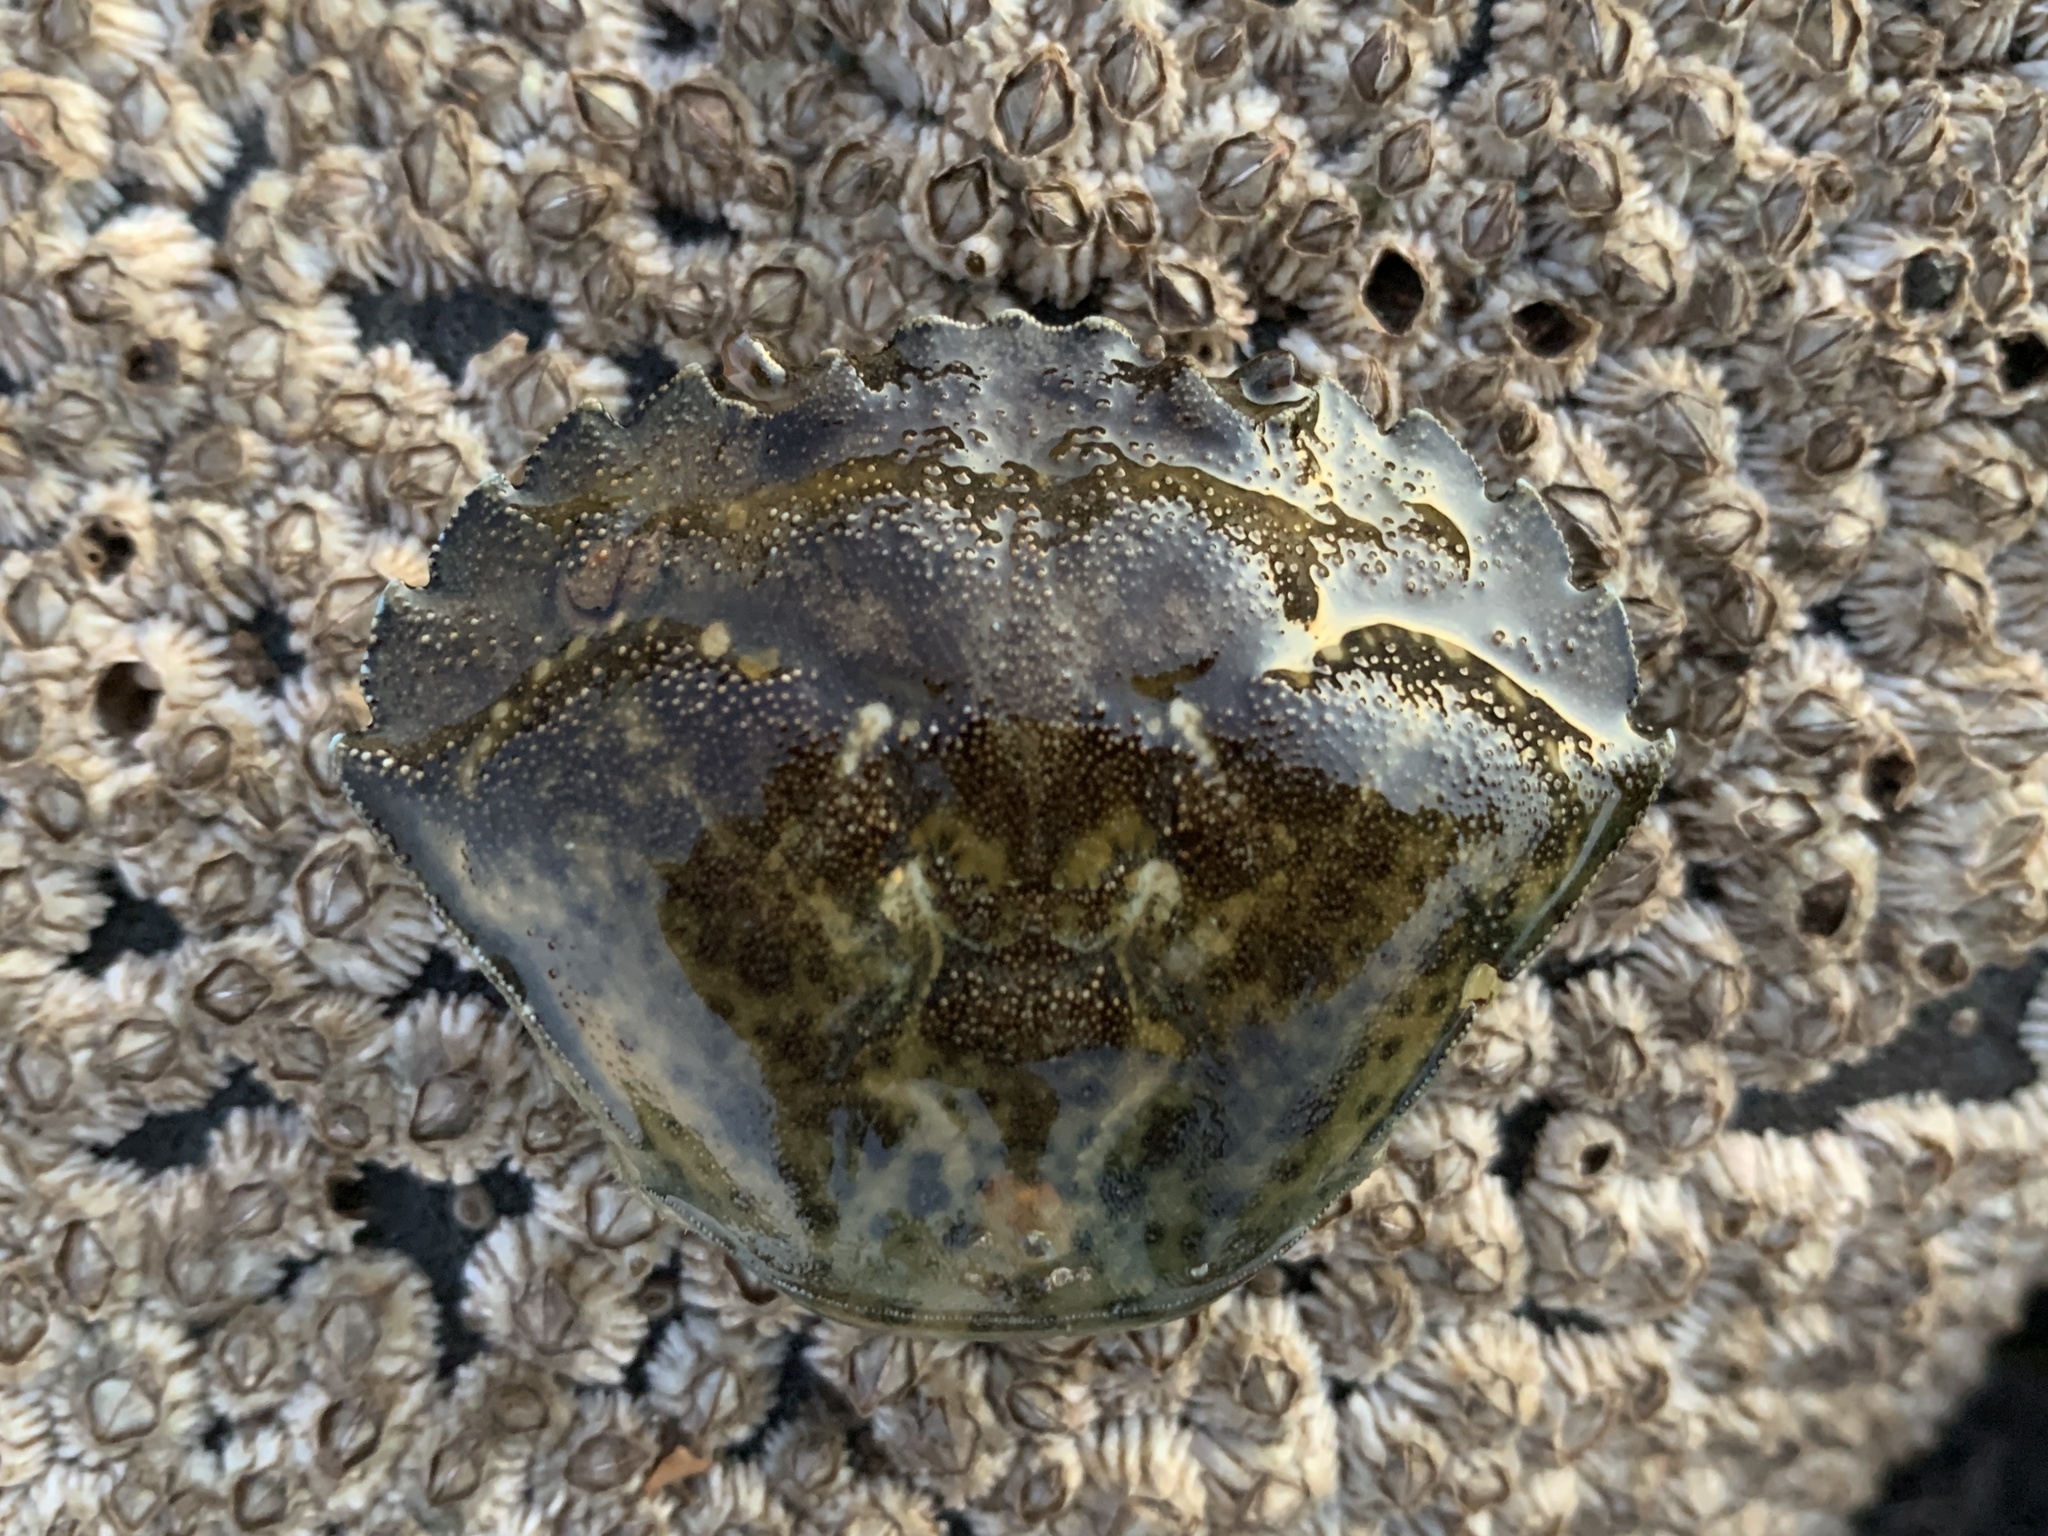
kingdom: Animalia
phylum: Arthropoda
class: Malacostraca
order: Decapoda
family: Carcinidae
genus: Carcinus
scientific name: Carcinus maenas
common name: European green crab
